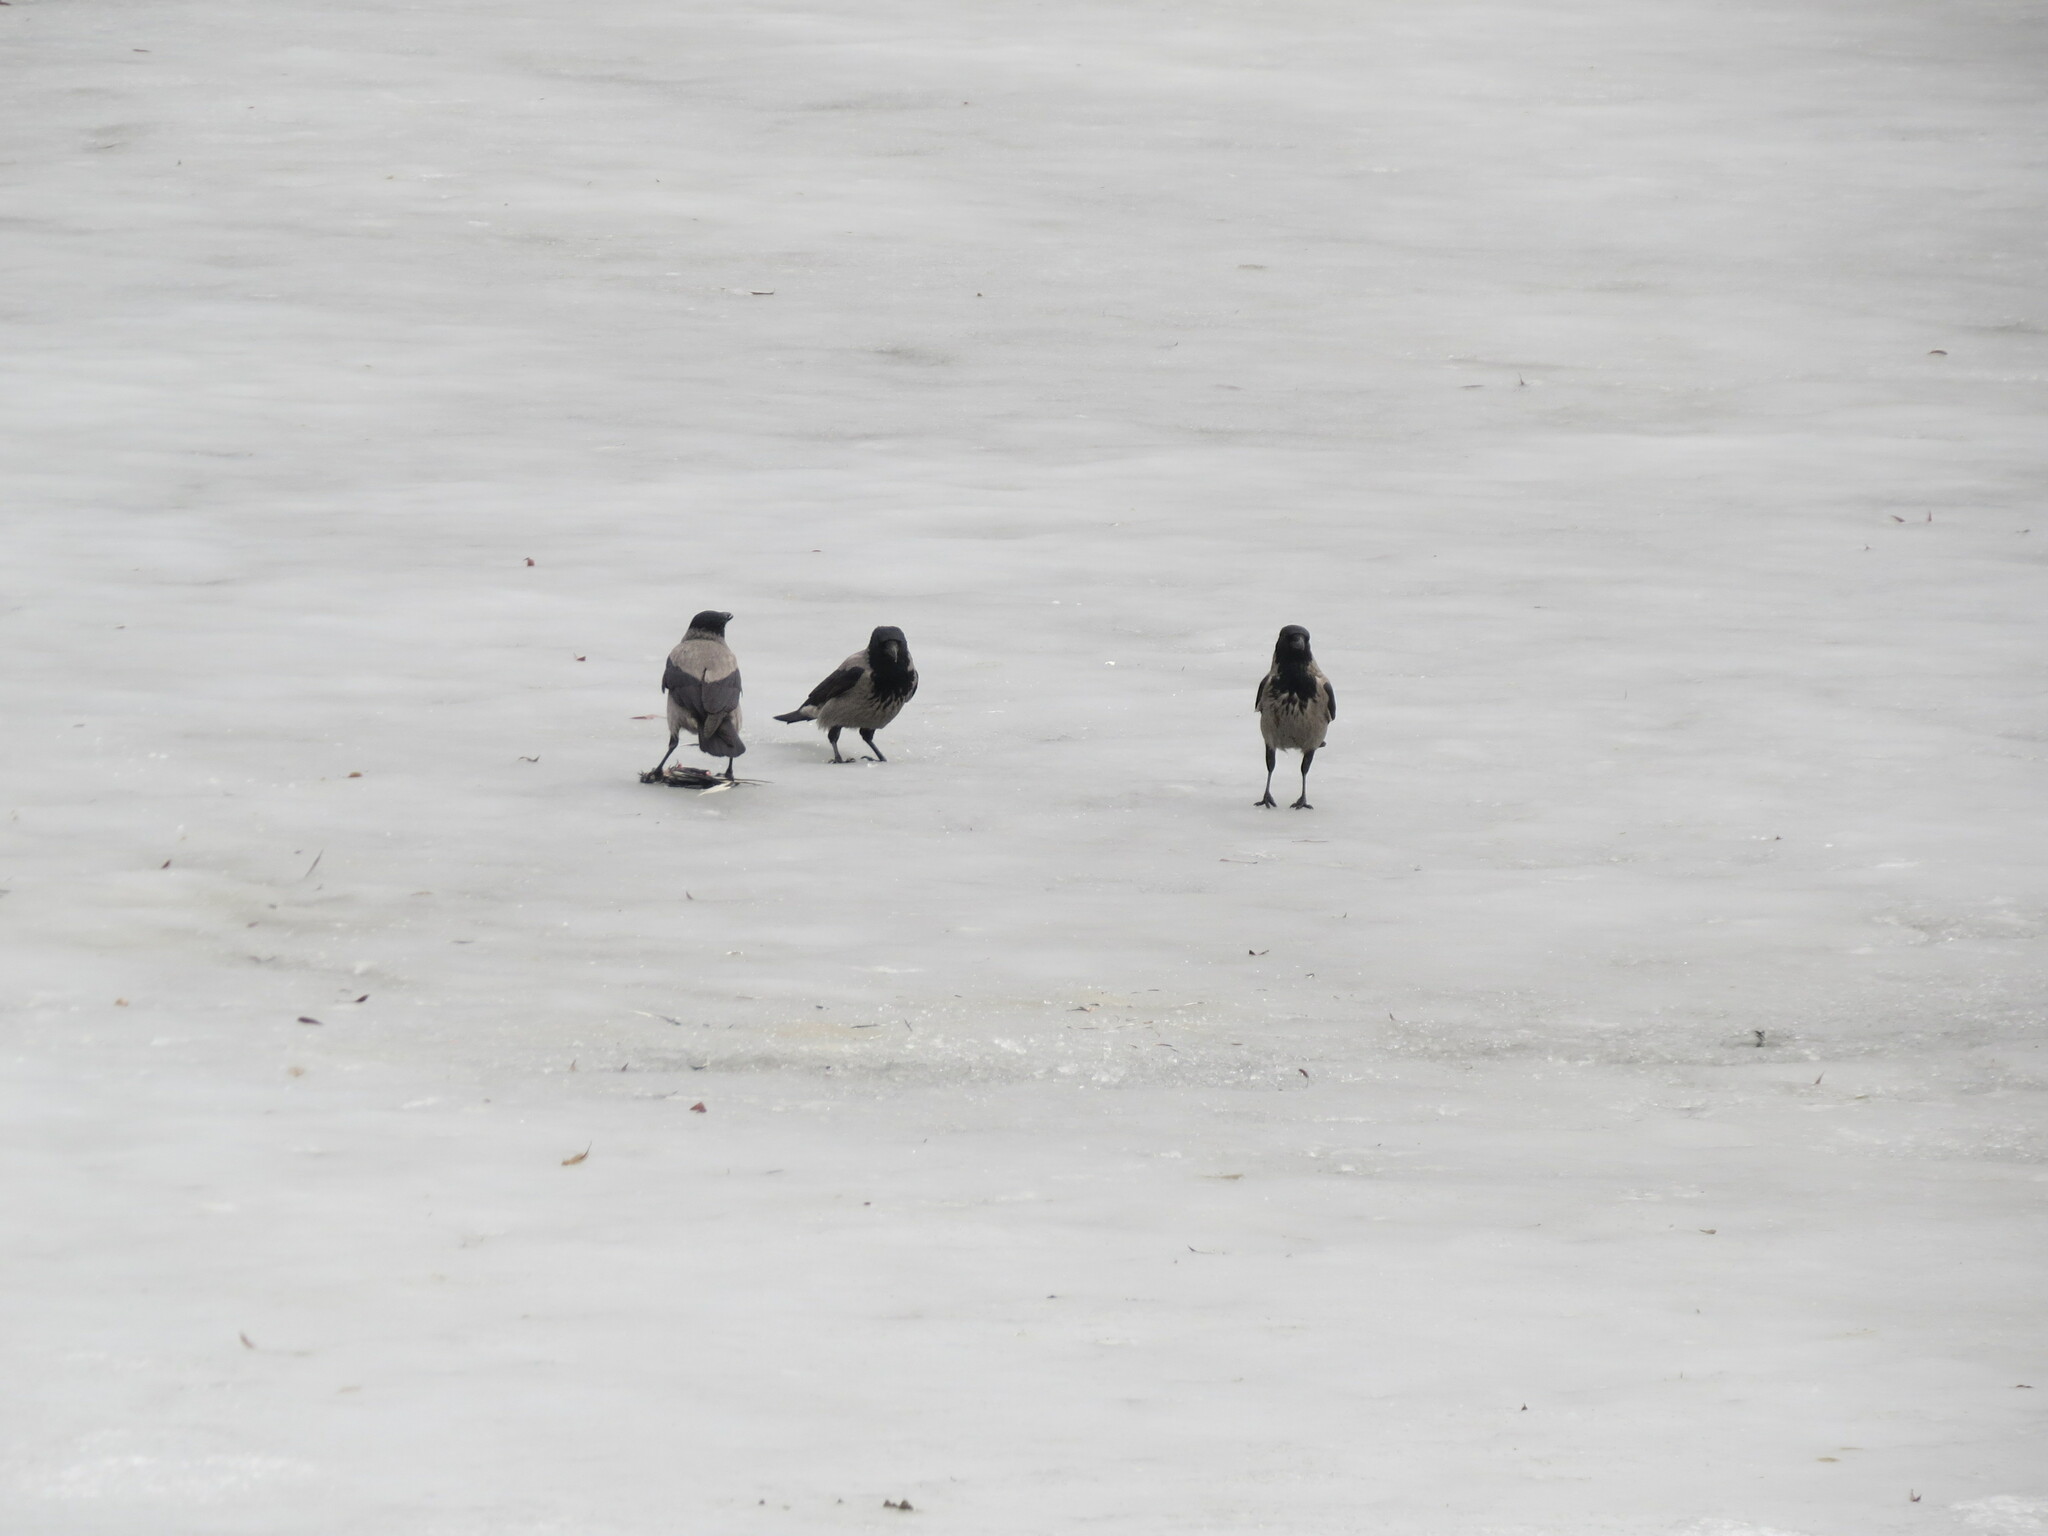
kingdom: Animalia
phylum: Chordata
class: Aves
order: Passeriformes
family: Corvidae
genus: Corvus
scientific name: Corvus cornix
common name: Hooded crow
